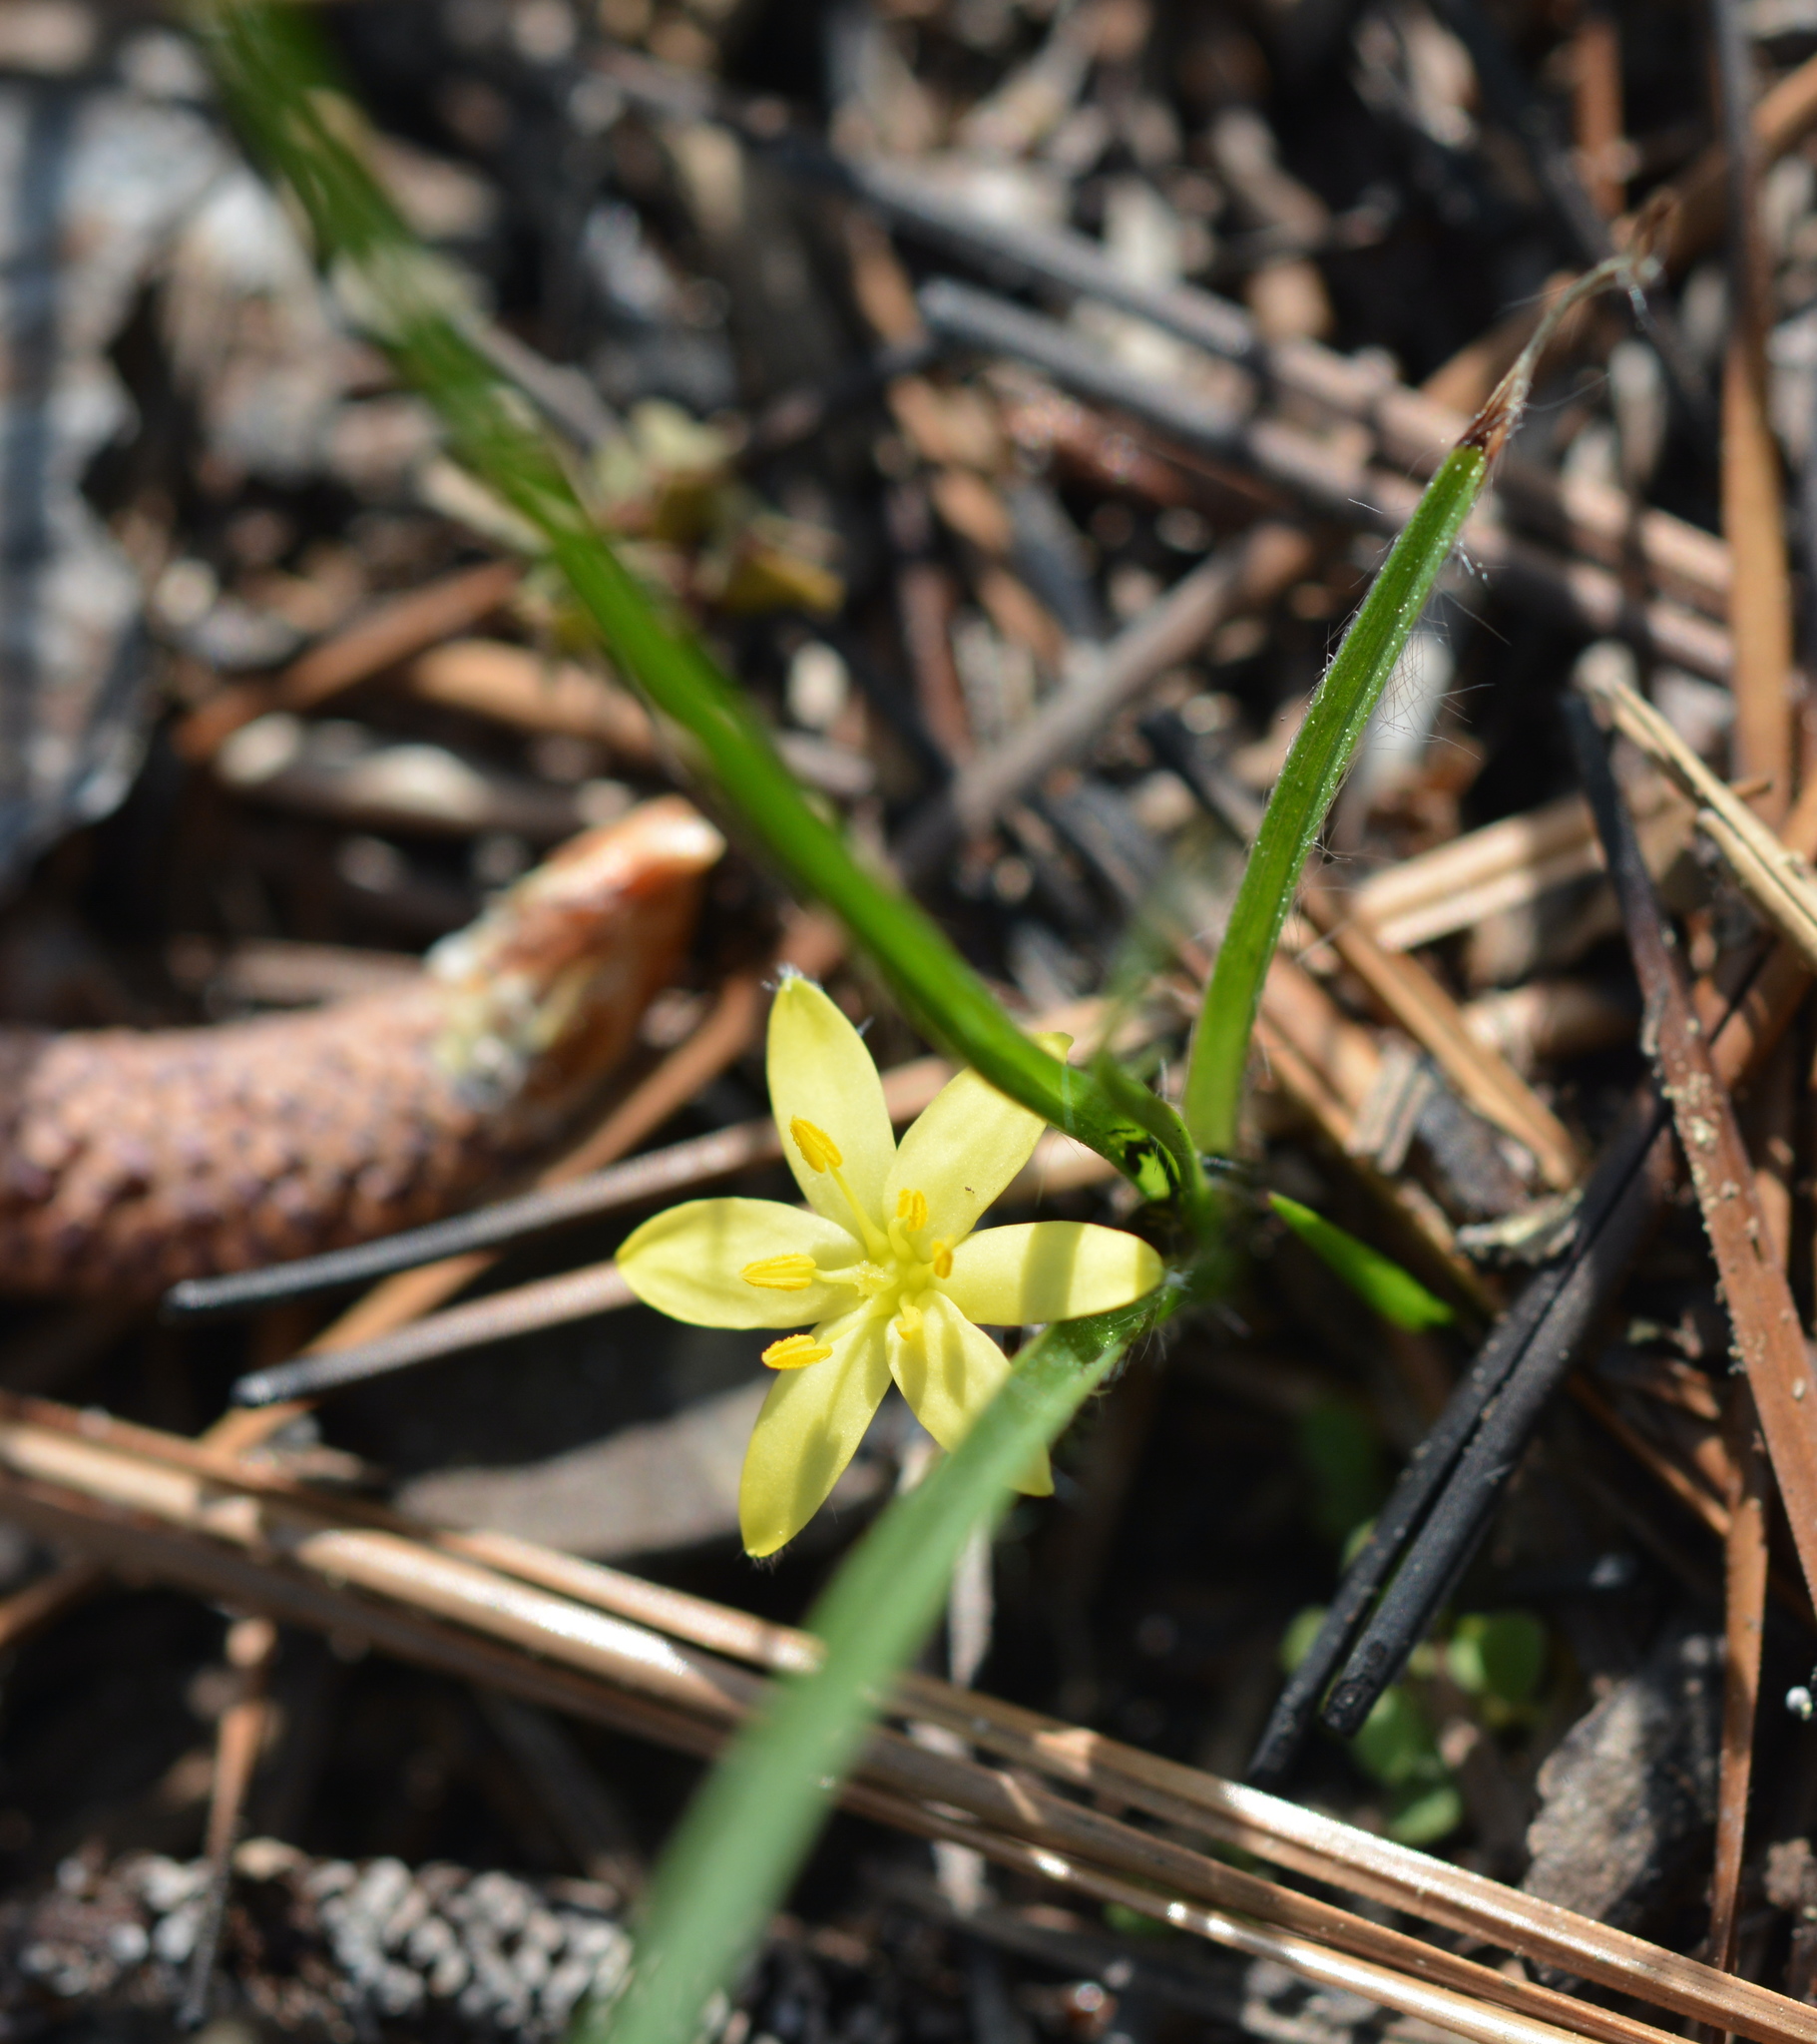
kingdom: Plantae
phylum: Tracheophyta
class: Liliopsida
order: Asparagales
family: Hypoxidaceae
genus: Hypoxis
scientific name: Hypoxis hirsuta
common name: Common goldstar
